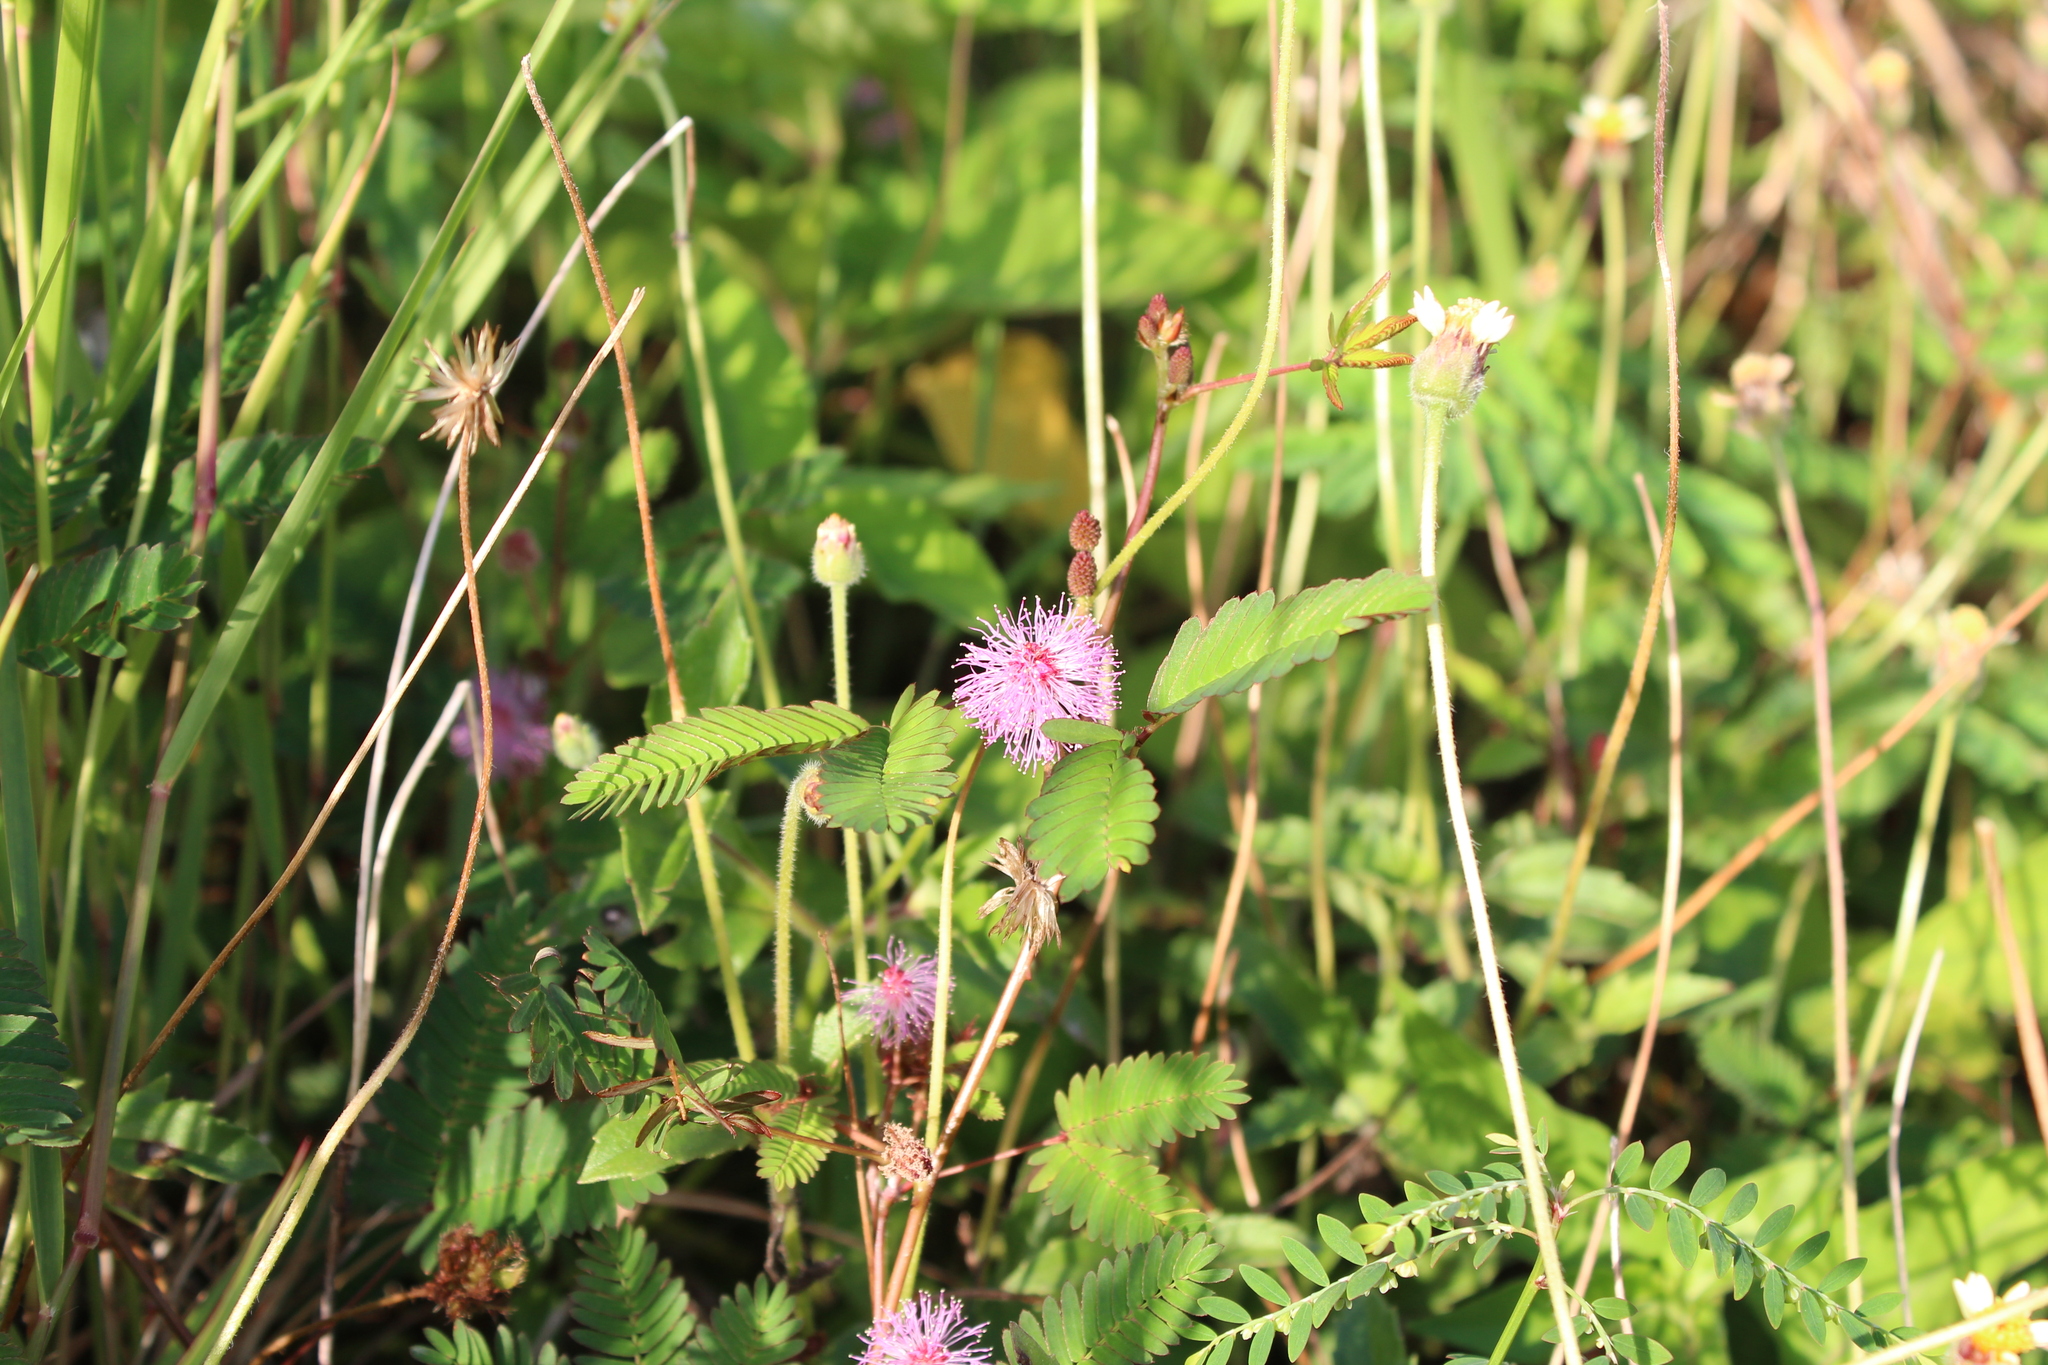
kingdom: Plantae
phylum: Tracheophyta
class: Magnoliopsida
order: Fabales
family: Fabaceae
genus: Mimosa
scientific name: Mimosa pudica
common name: Sensitive plant
